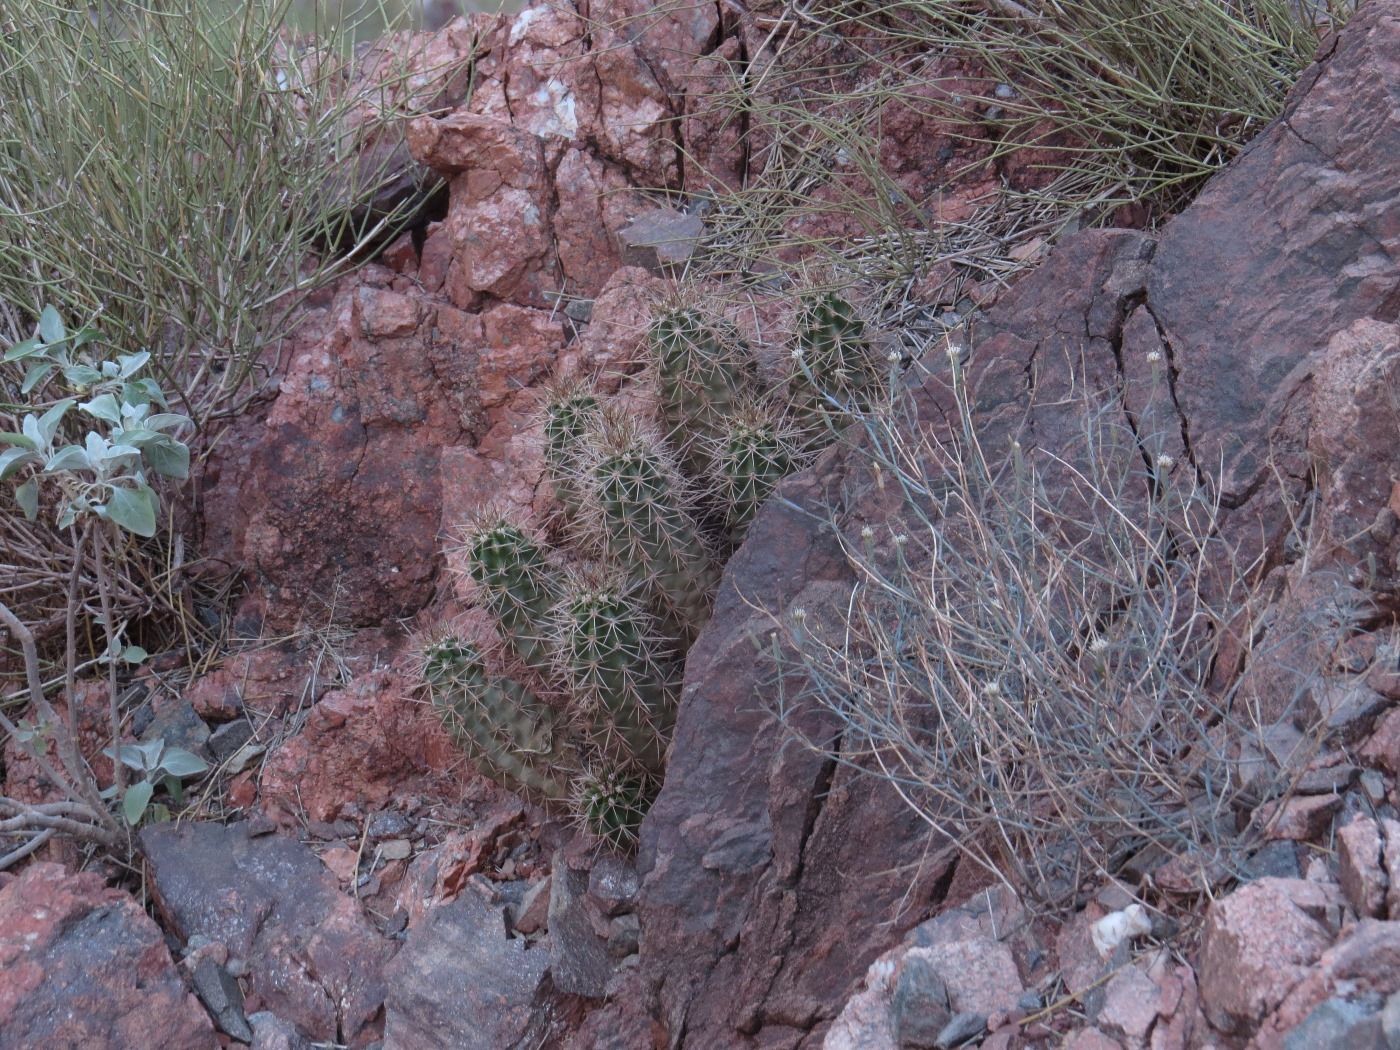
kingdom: Plantae
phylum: Tracheophyta
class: Magnoliopsida
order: Caryophyllales
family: Cactaceae
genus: Echinocereus
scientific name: Echinocereus bakeri
